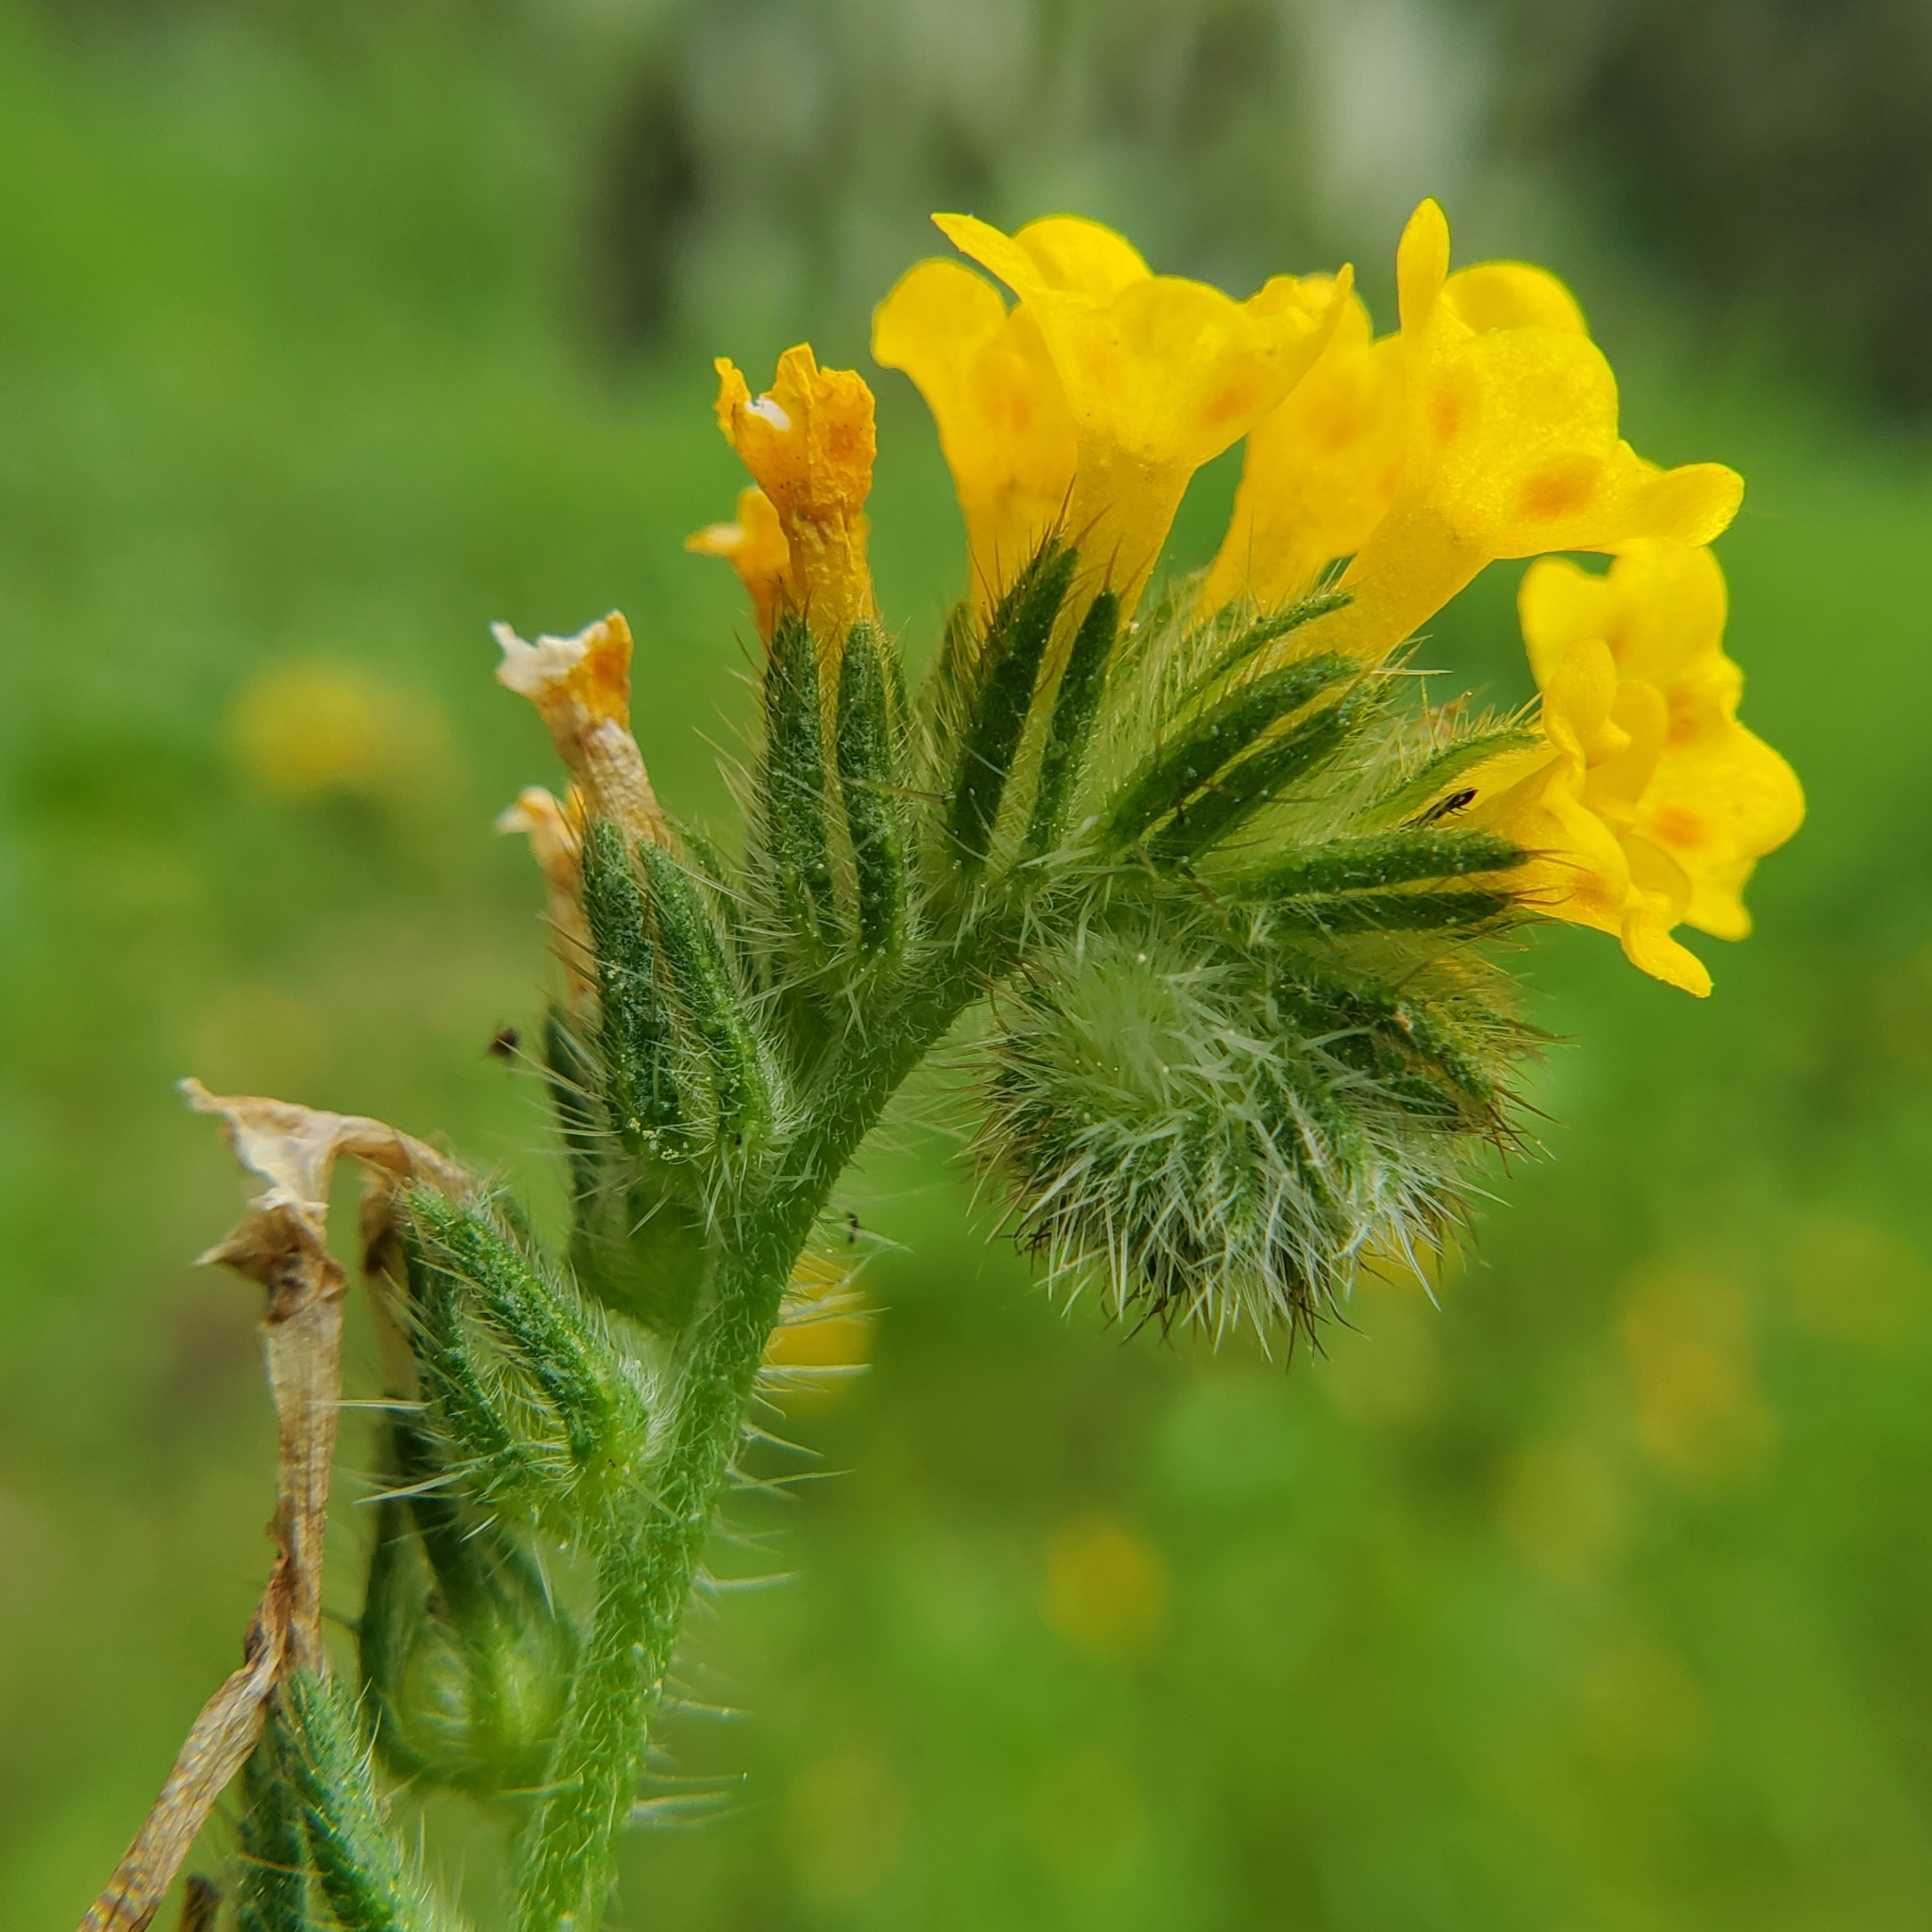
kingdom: Plantae
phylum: Tracheophyta
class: Magnoliopsida
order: Boraginales
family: Boraginaceae
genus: Amsinckia
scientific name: Amsinckia menziesii
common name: Menzies' fiddleneck
